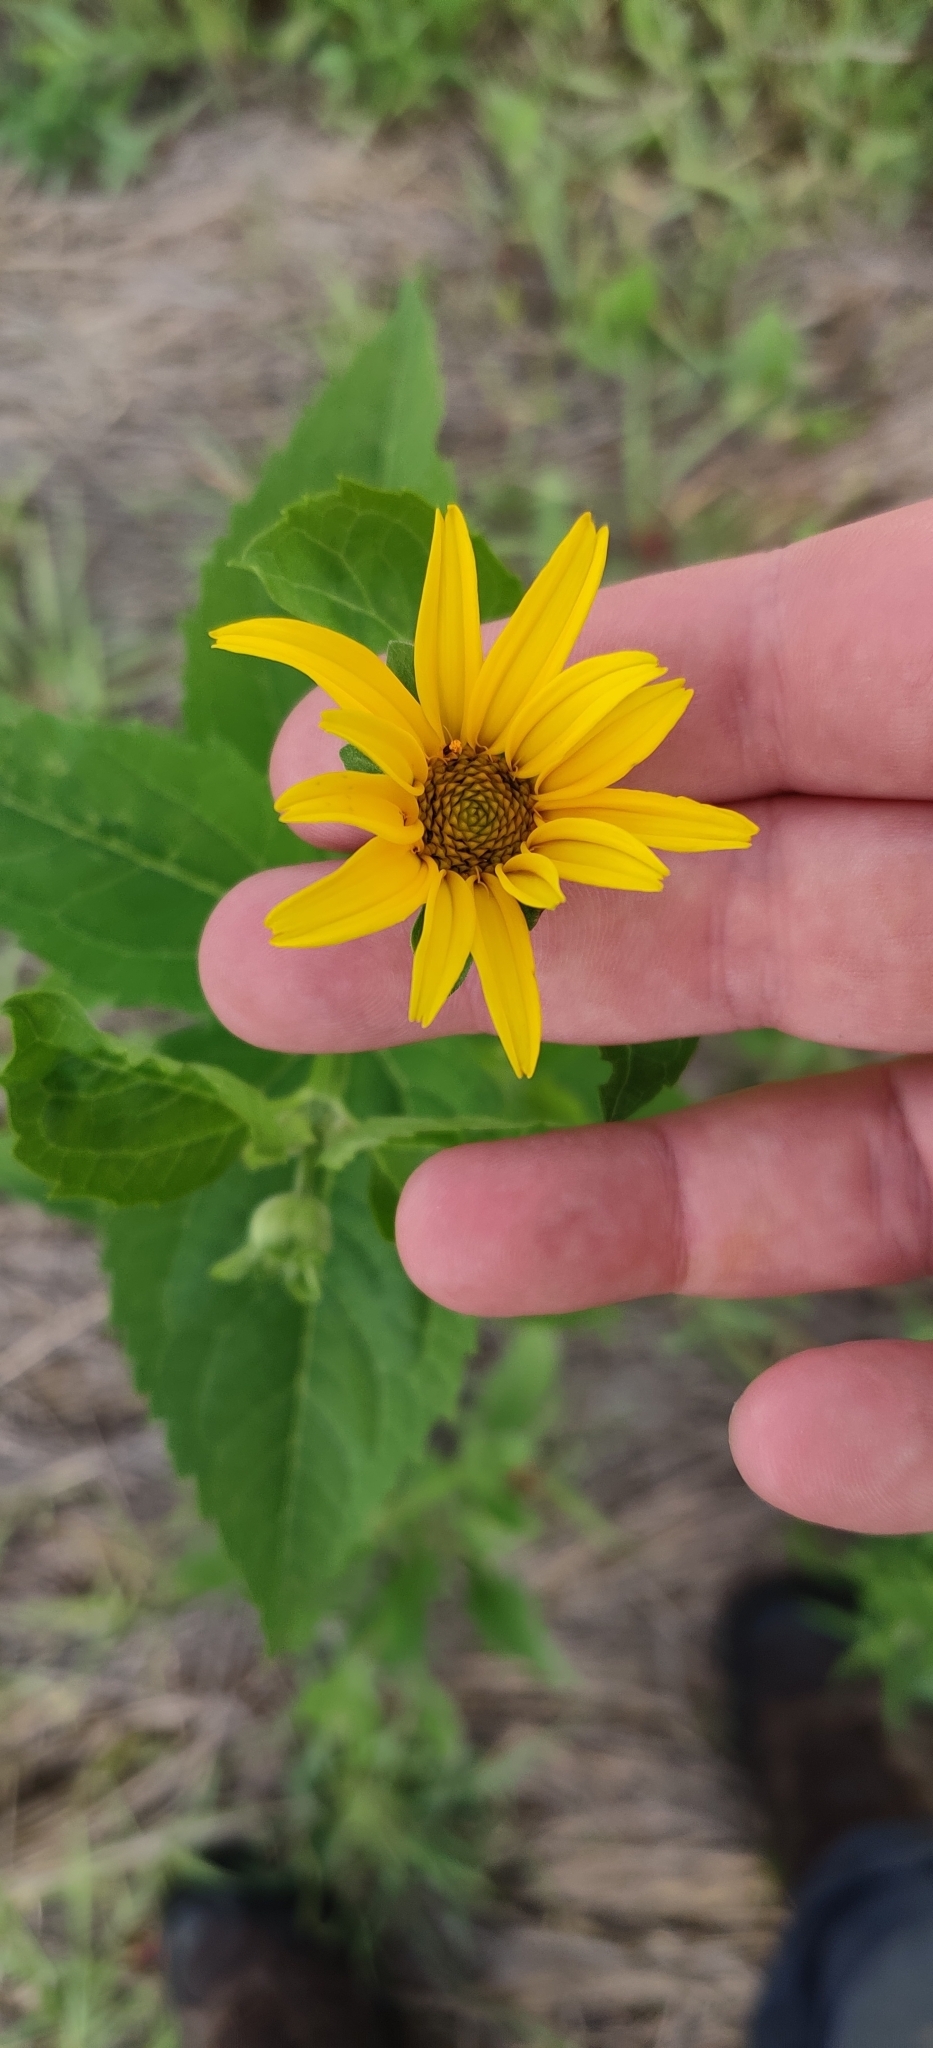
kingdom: Plantae
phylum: Tracheophyta
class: Magnoliopsida
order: Asterales
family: Asteraceae
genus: Heliopsis
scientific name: Heliopsis helianthoides
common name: False sunflower
